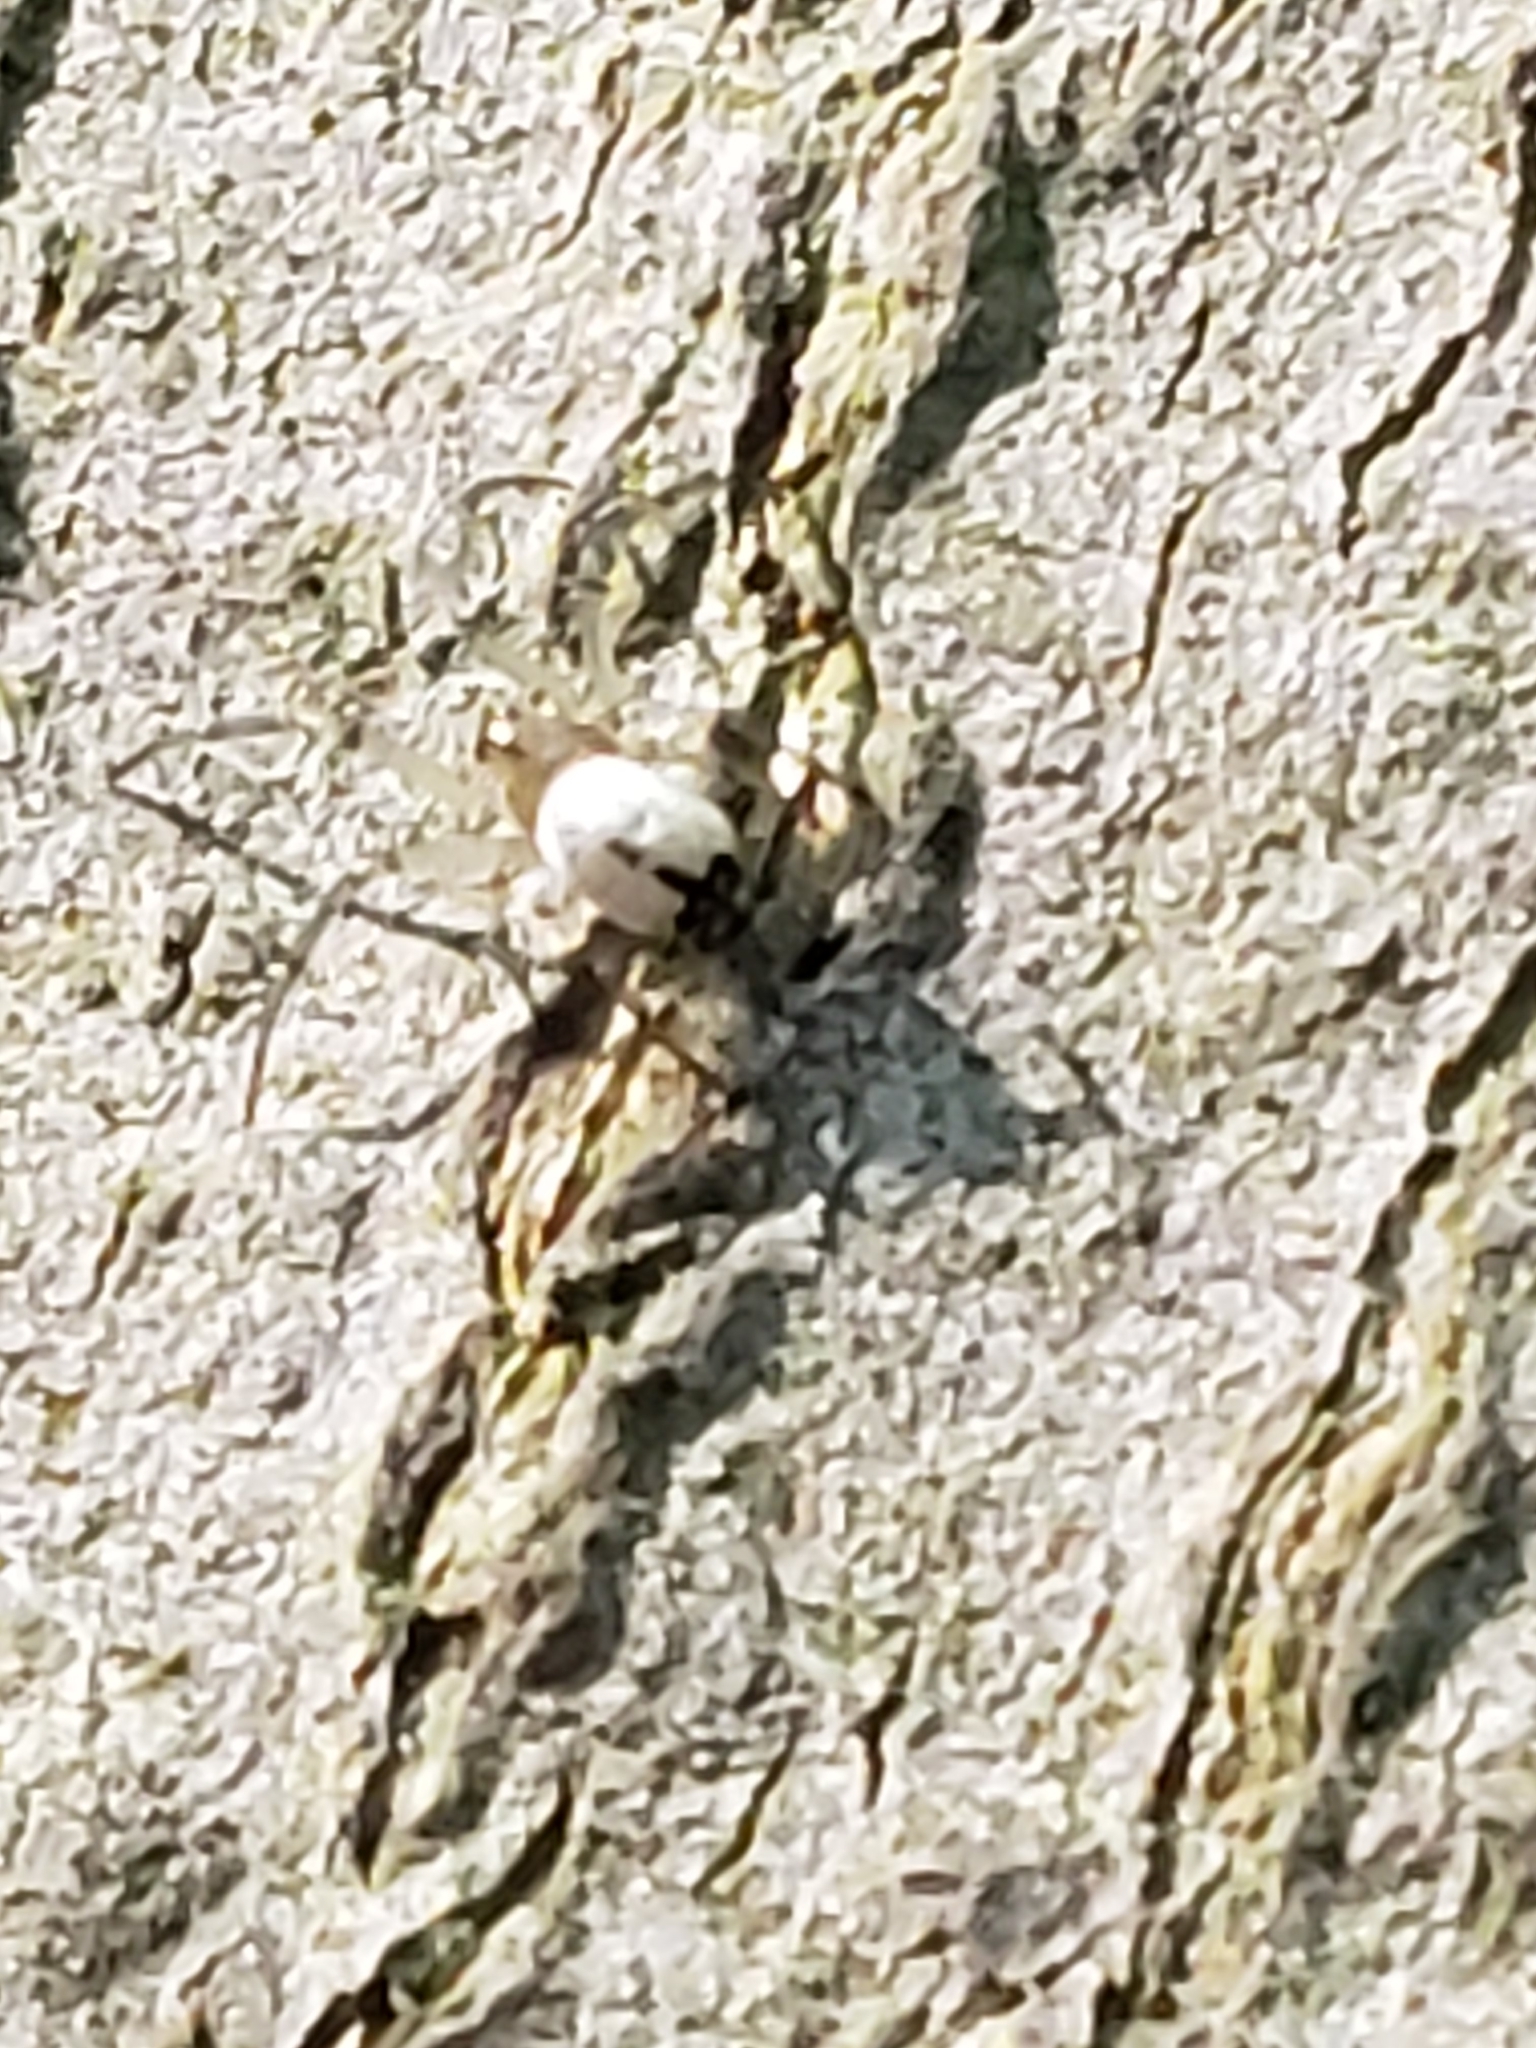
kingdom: Animalia
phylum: Arthropoda
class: Arachnida
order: Araneae
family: Tetragnathidae
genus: Leucauge
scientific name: Leucauge venusta
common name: Longjawed orb weavers
